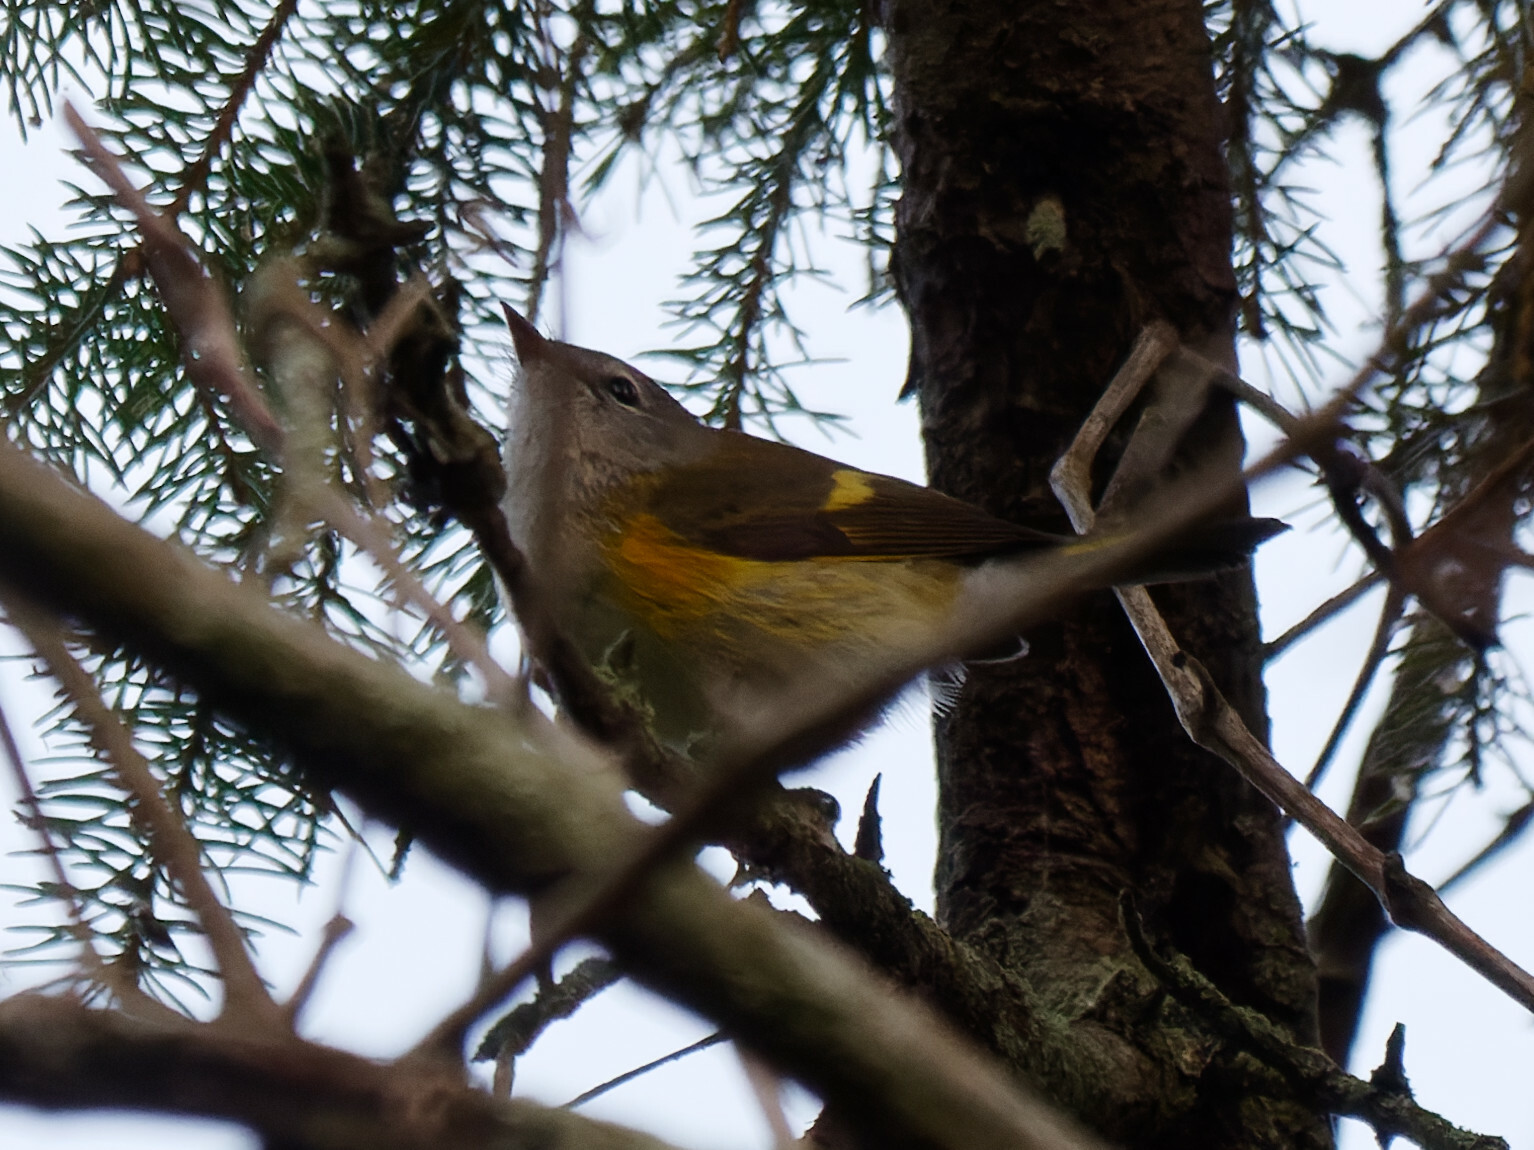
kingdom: Animalia
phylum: Chordata
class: Aves
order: Passeriformes
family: Parulidae
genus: Setophaga
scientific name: Setophaga ruticilla
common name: American redstart
